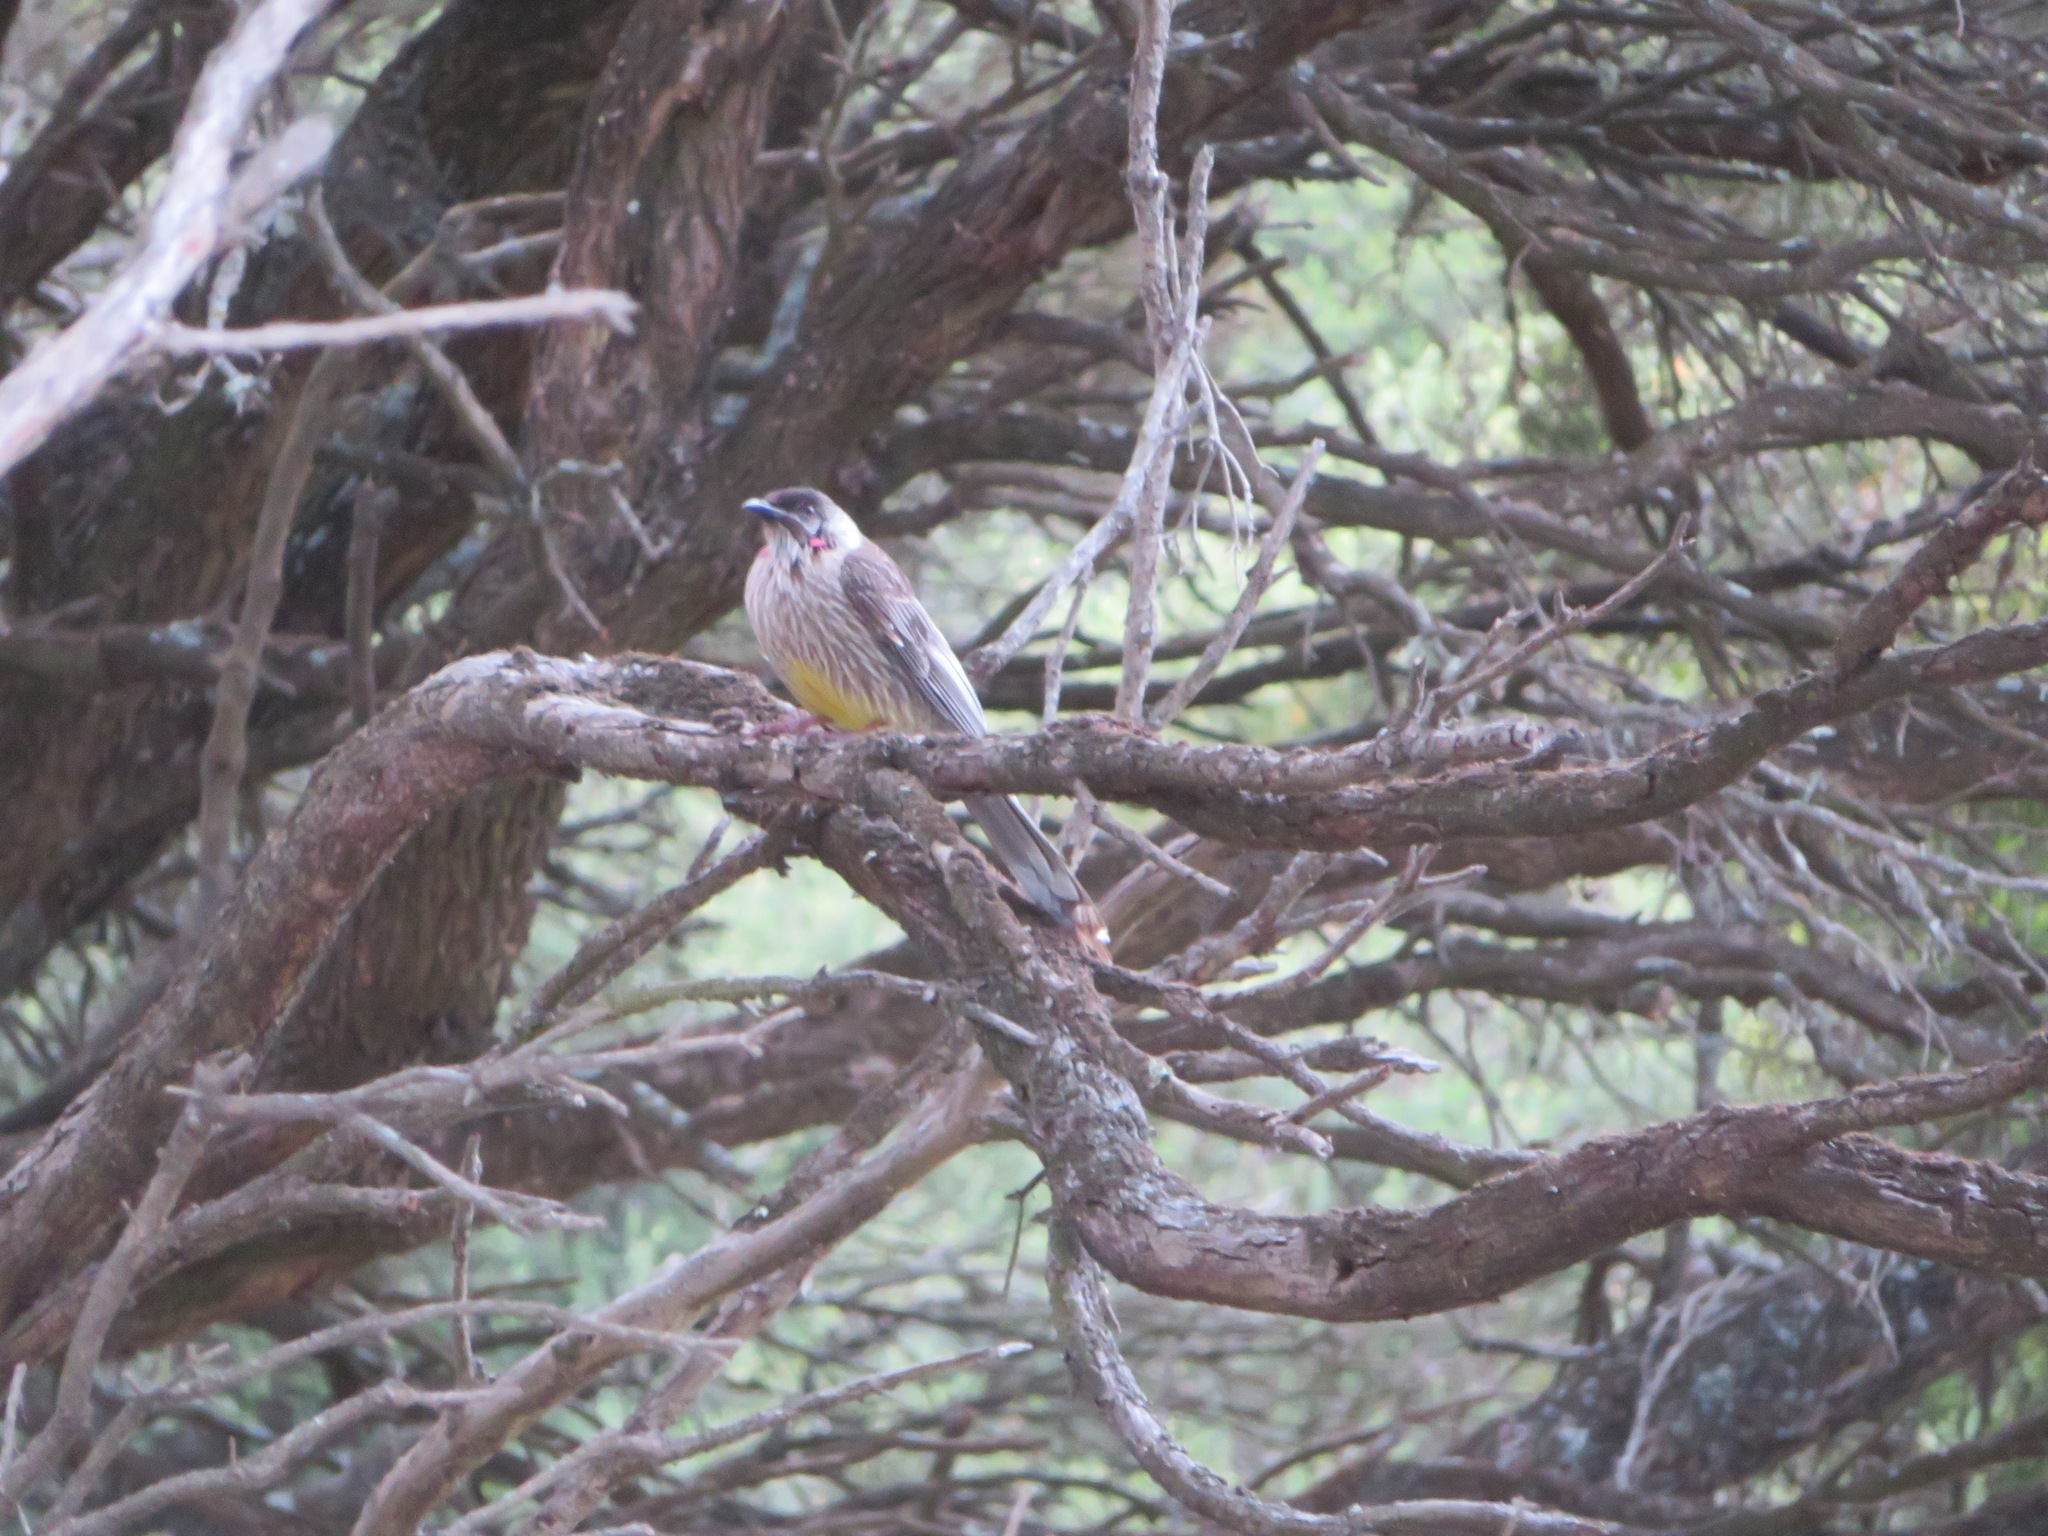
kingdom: Animalia
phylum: Chordata
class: Aves
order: Passeriformes
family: Meliphagidae
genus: Anthochaera
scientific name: Anthochaera carunculata
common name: Red wattlebird
